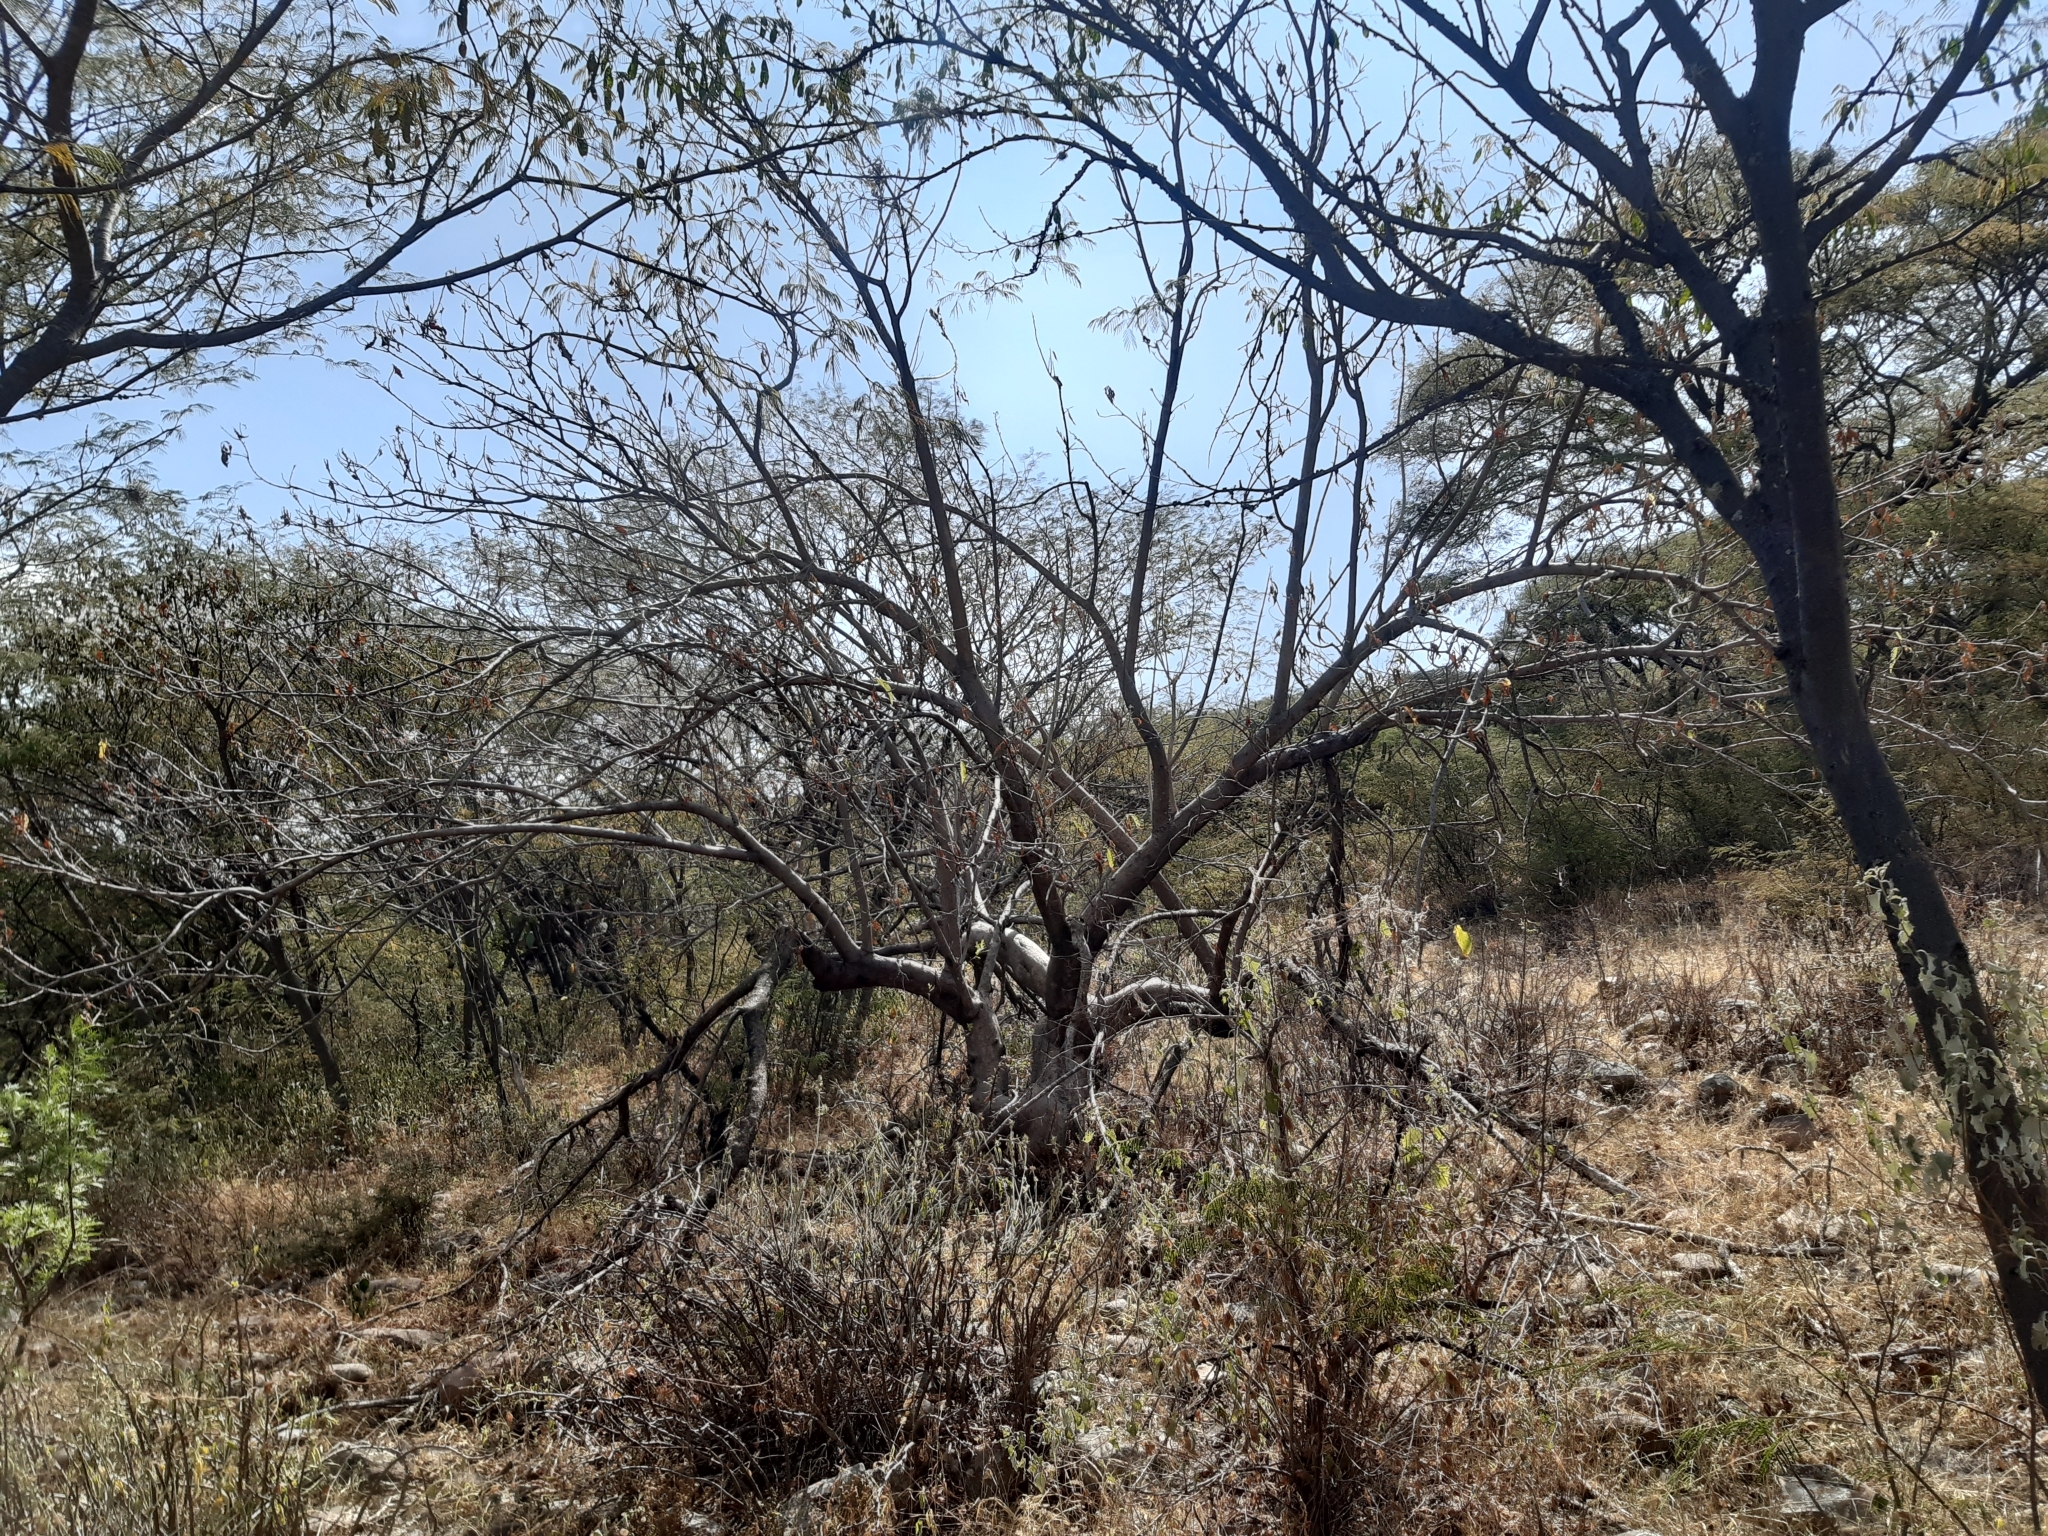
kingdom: Plantae
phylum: Tracheophyta
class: Magnoliopsida
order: Solanales
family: Convolvulaceae
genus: Ipomoea
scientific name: Ipomoea murucoides
